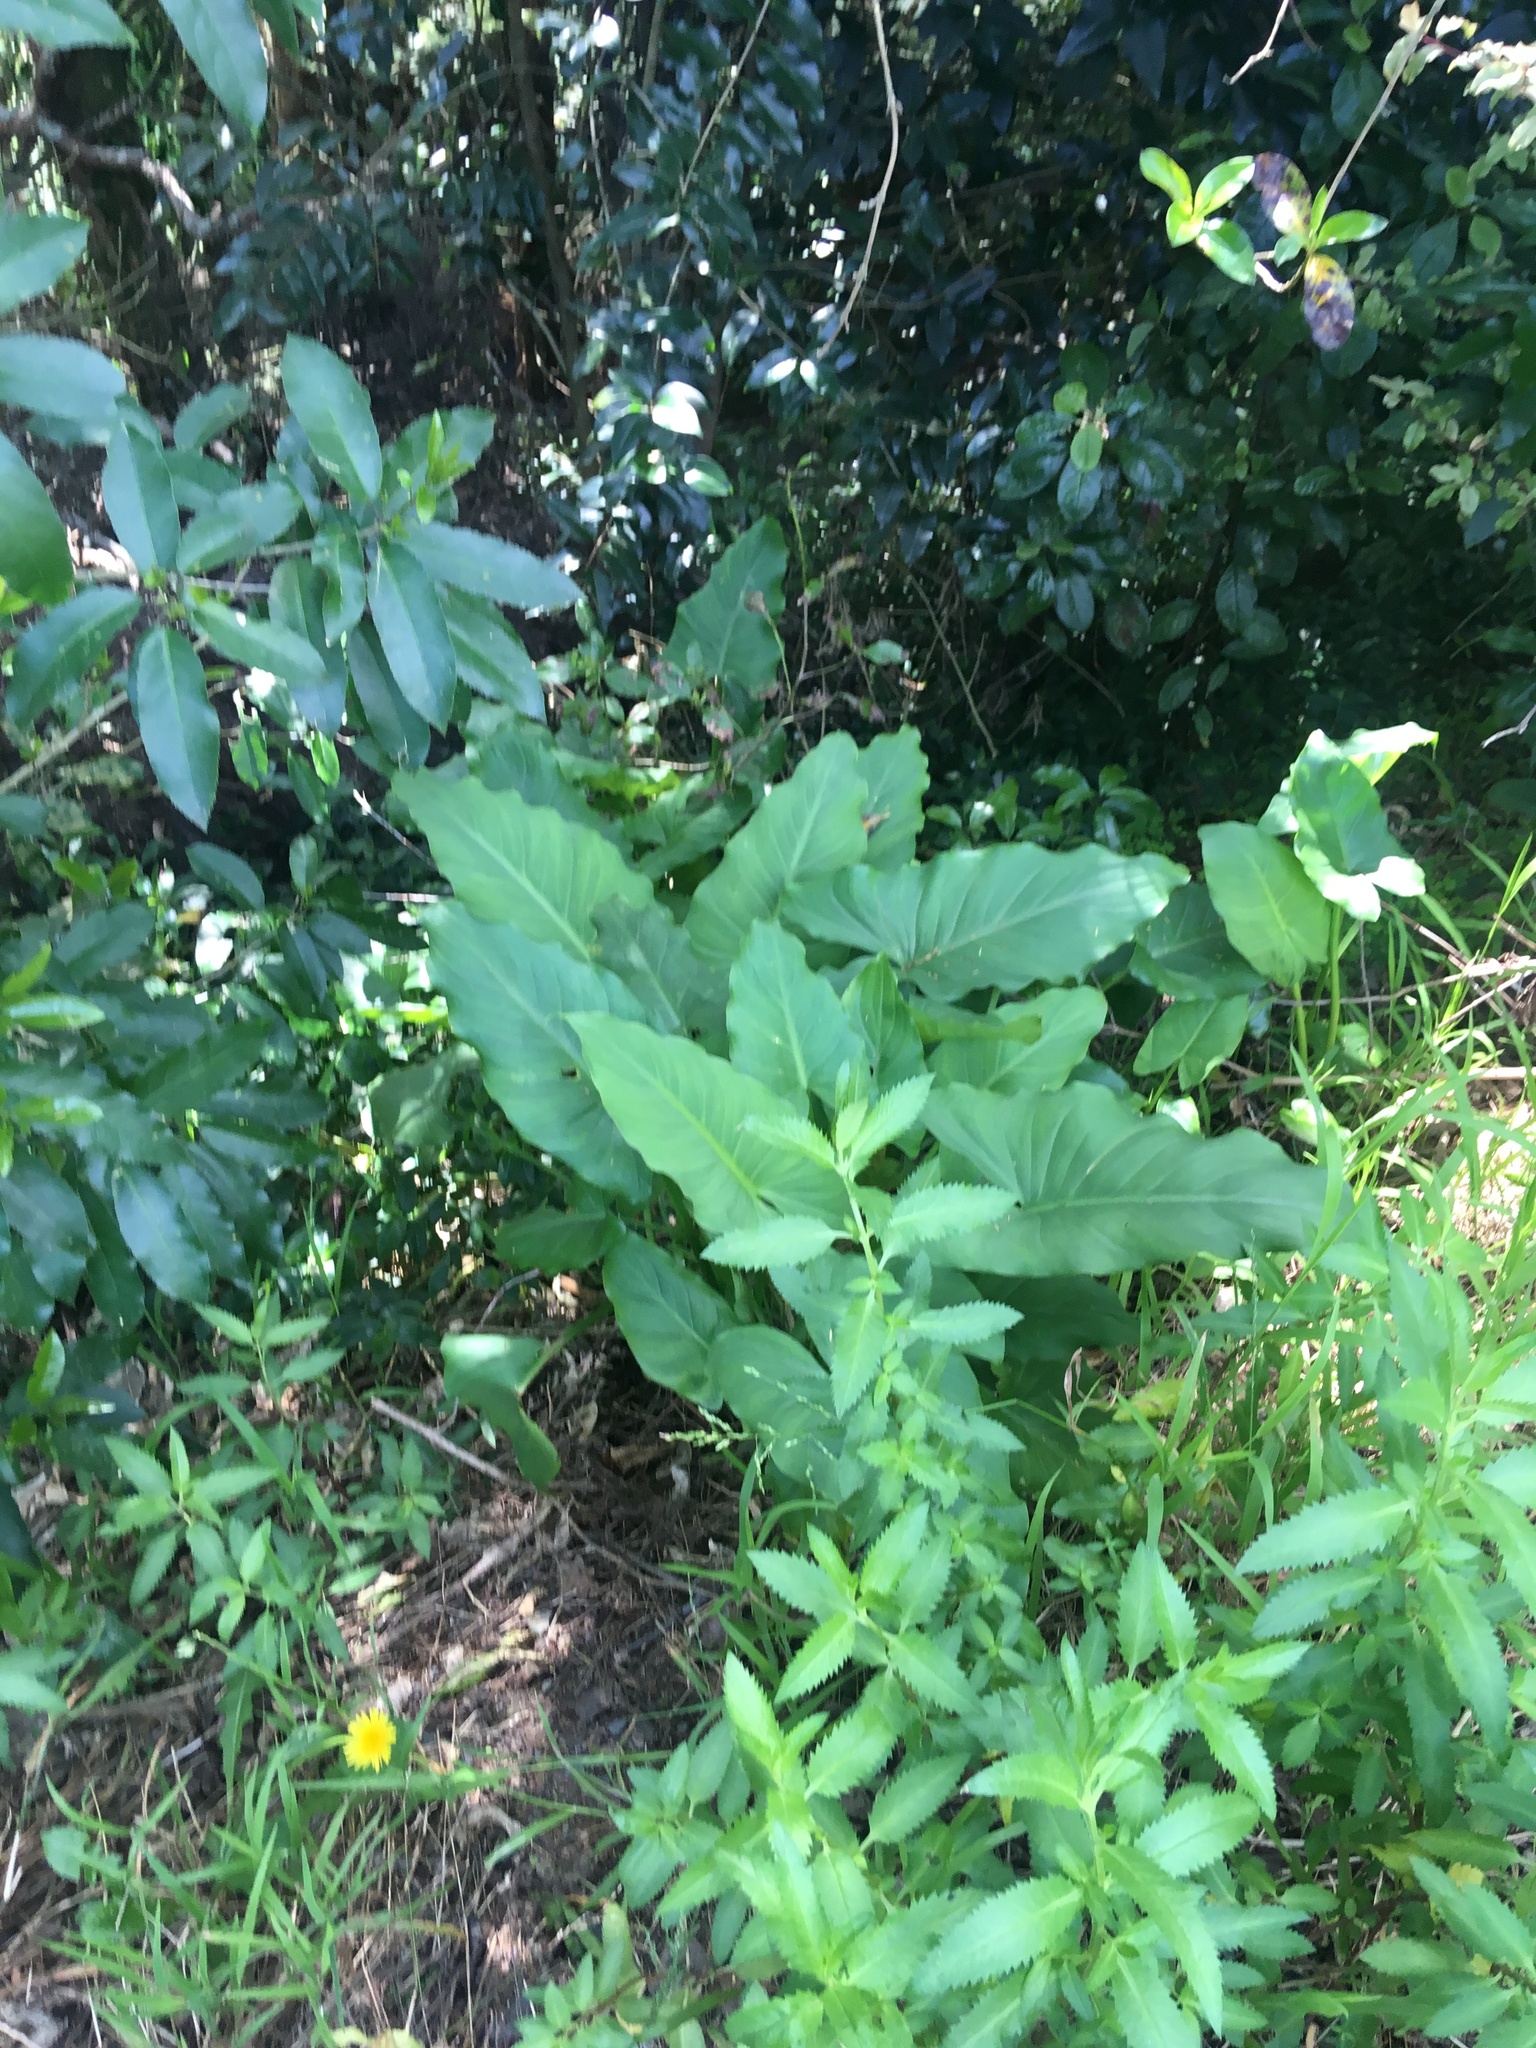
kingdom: Plantae
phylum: Tracheophyta
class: Liliopsida
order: Alismatales
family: Araceae
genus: Zantedeschia
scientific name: Zantedeschia aethiopica
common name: Altar-lily
